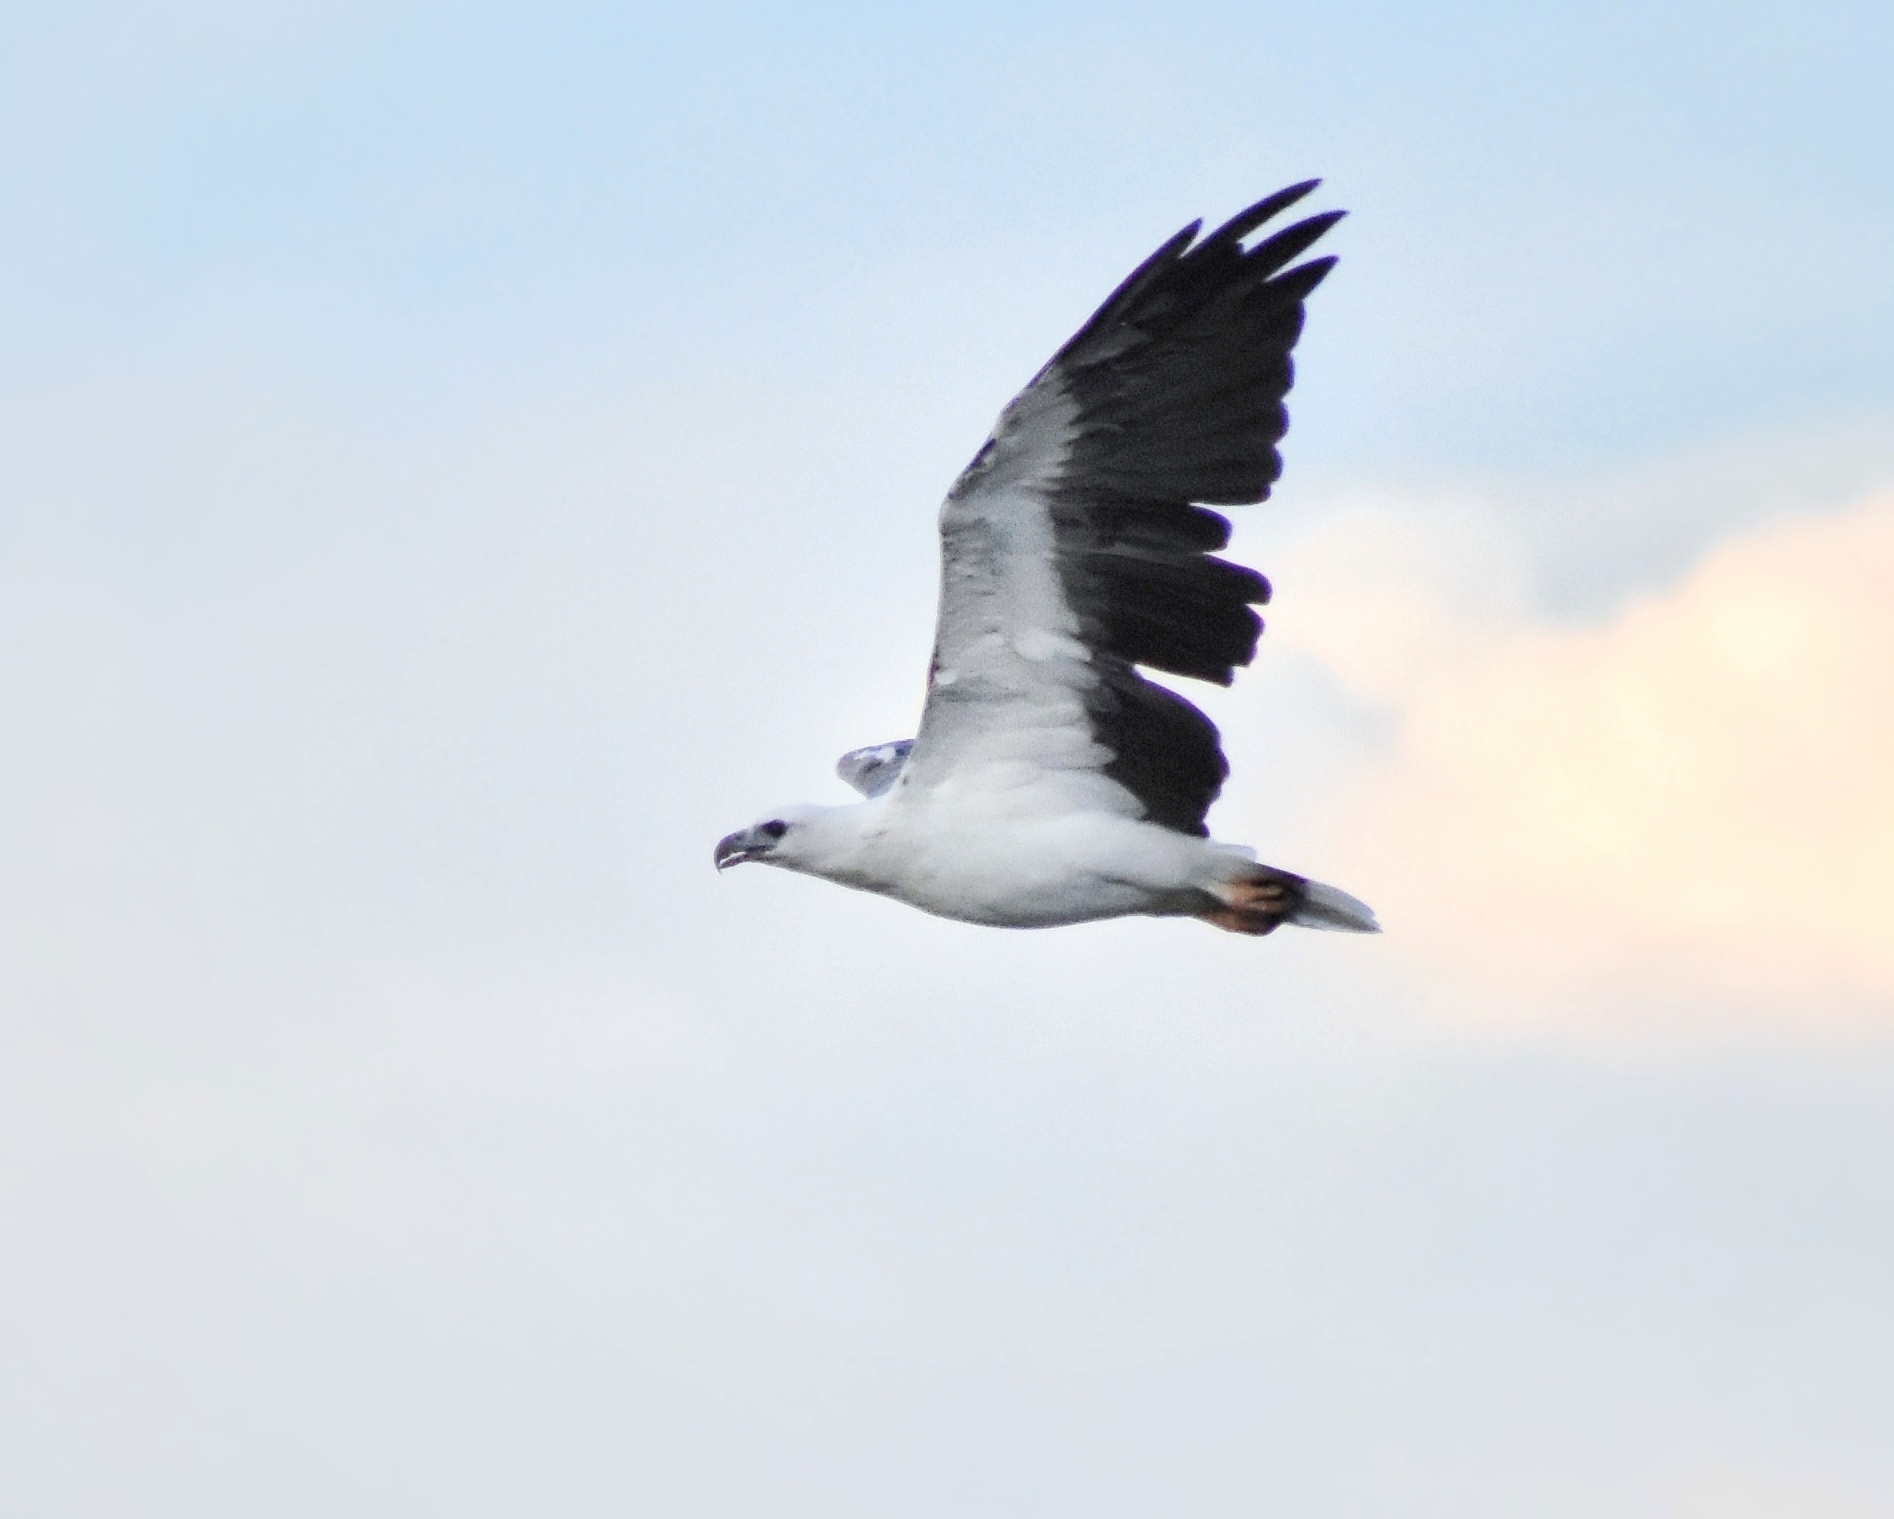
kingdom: Animalia
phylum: Chordata
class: Aves
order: Accipitriformes
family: Accipitridae
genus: Haliaeetus
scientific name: Haliaeetus leucogaster
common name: White-bellied sea eagle
